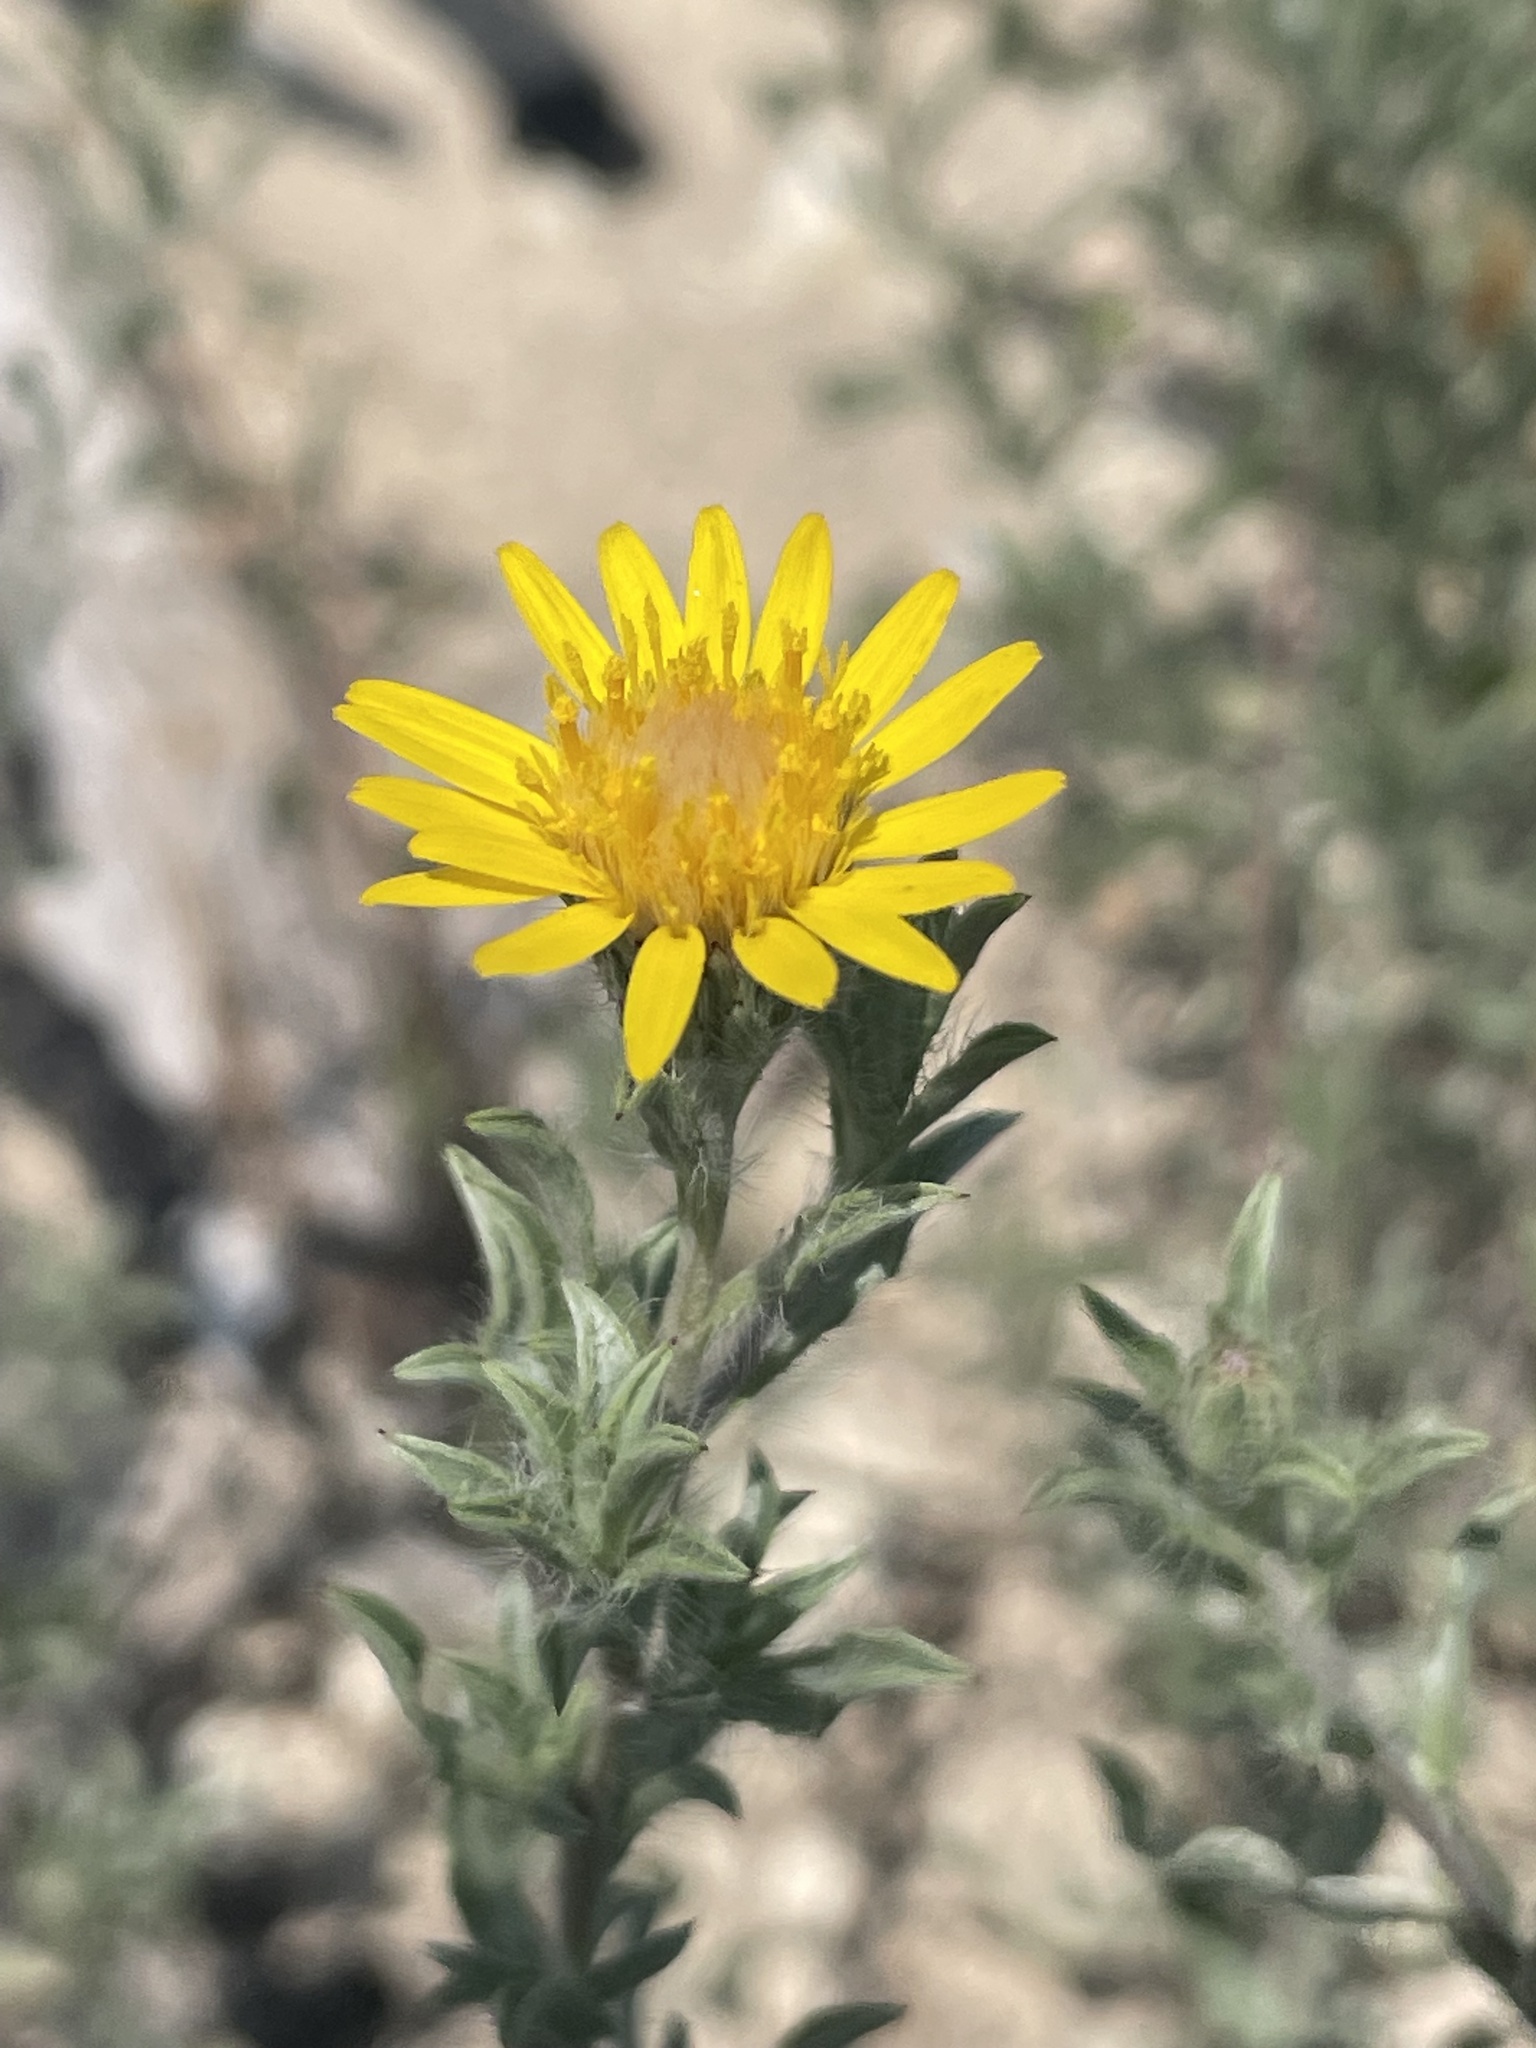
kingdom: Plantae
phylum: Tracheophyta
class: Magnoliopsida
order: Asterales
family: Asteraceae
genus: Heterotheca
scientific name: Heterotheca canescens
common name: Hoary golden-aster
